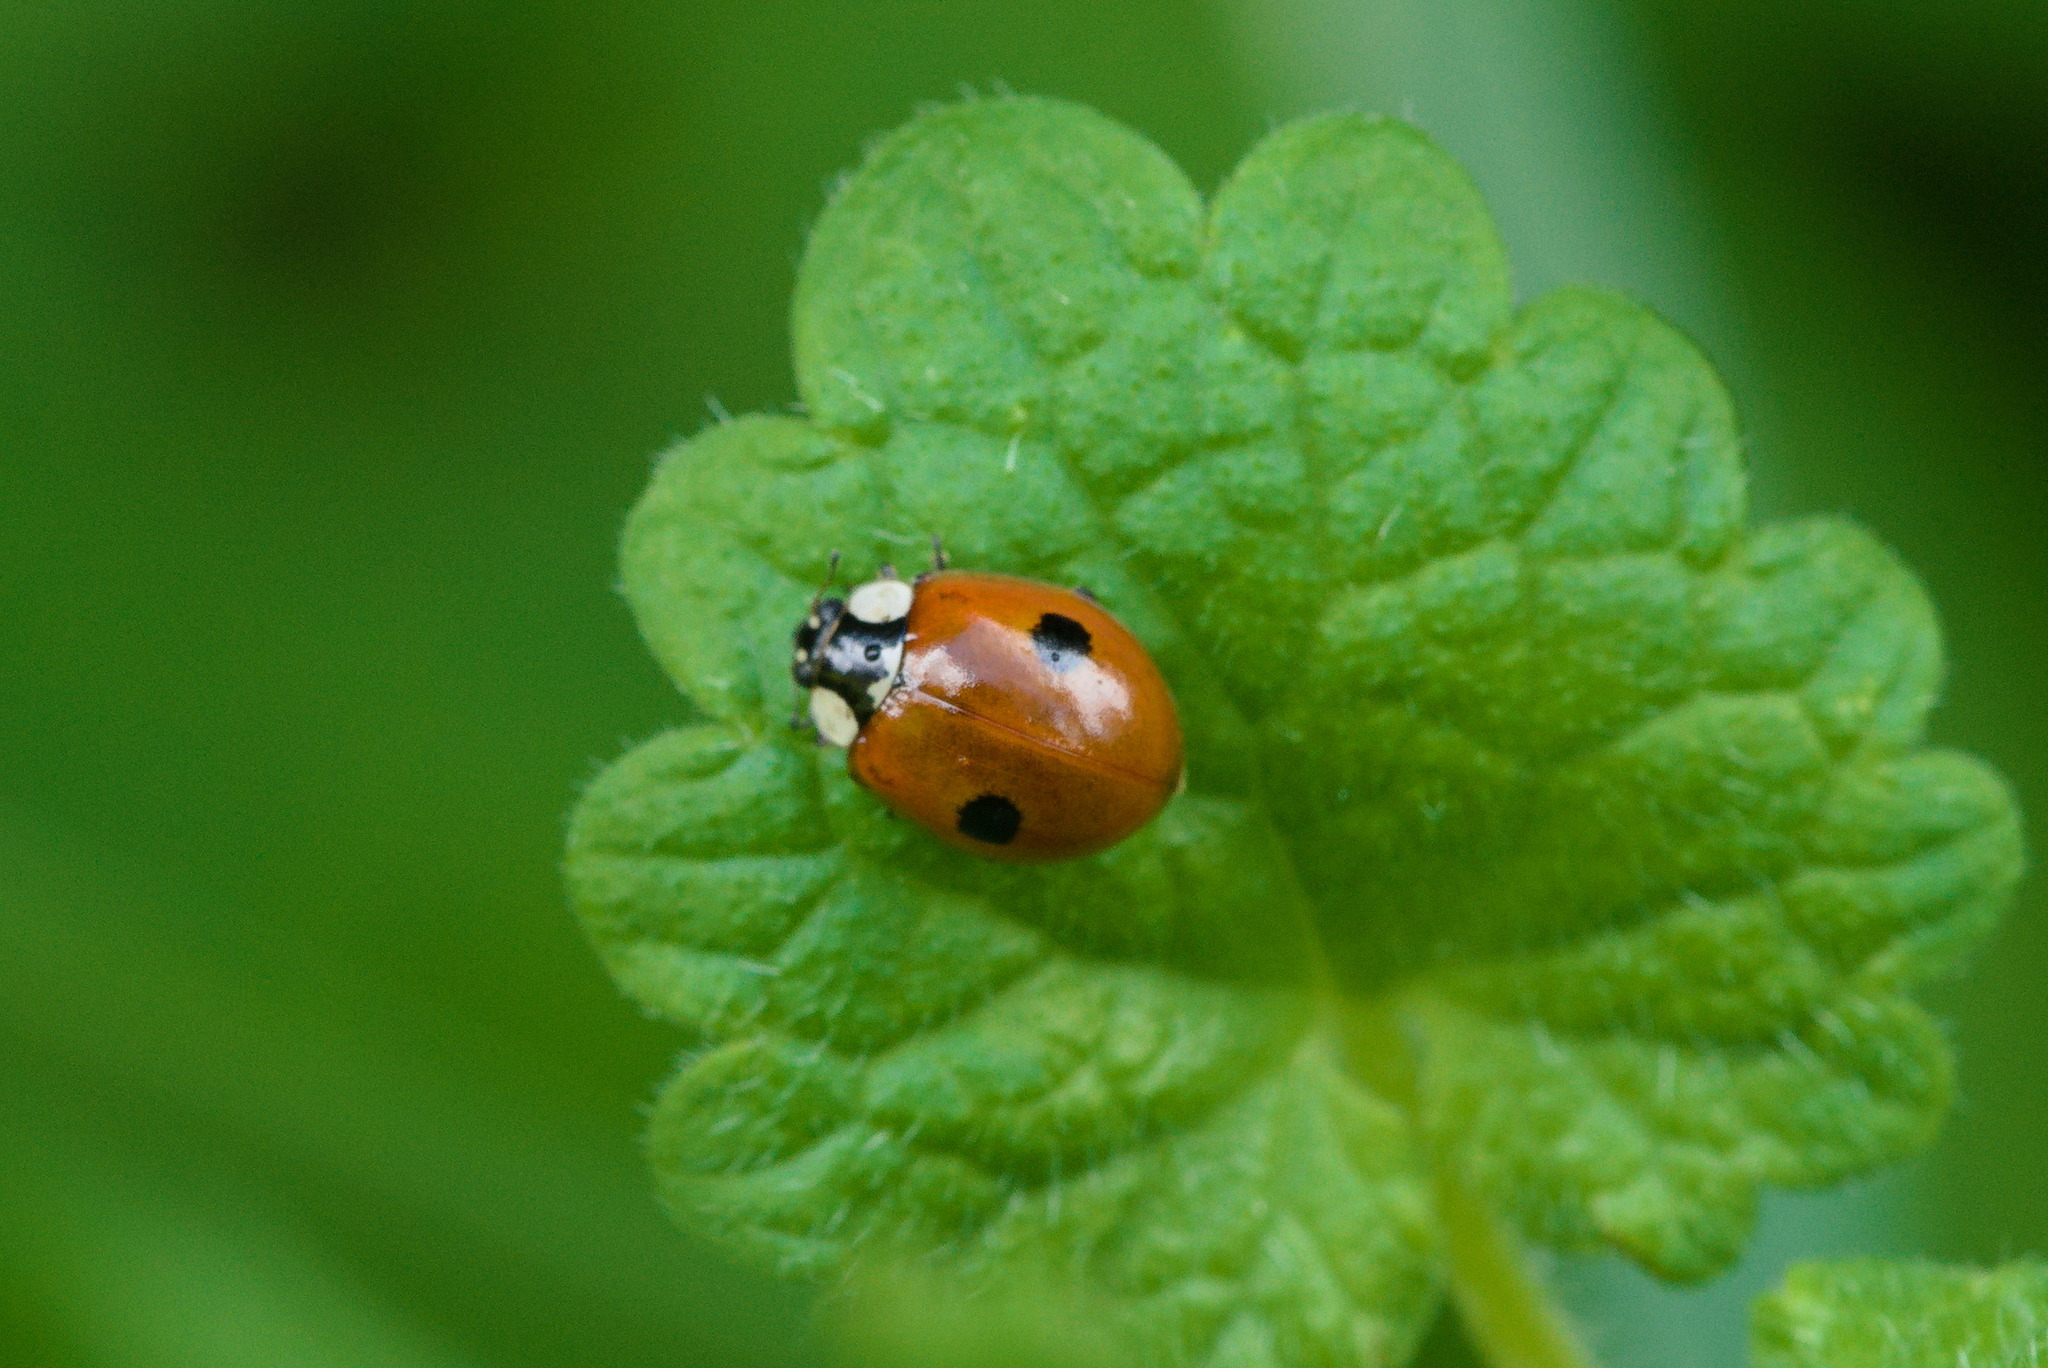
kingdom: Animalia
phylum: Arthropoda
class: Insecta
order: Coleoptera
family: Coccinellidae
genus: Adalia
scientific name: Adalia bipunctata
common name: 2-spot ladybird
